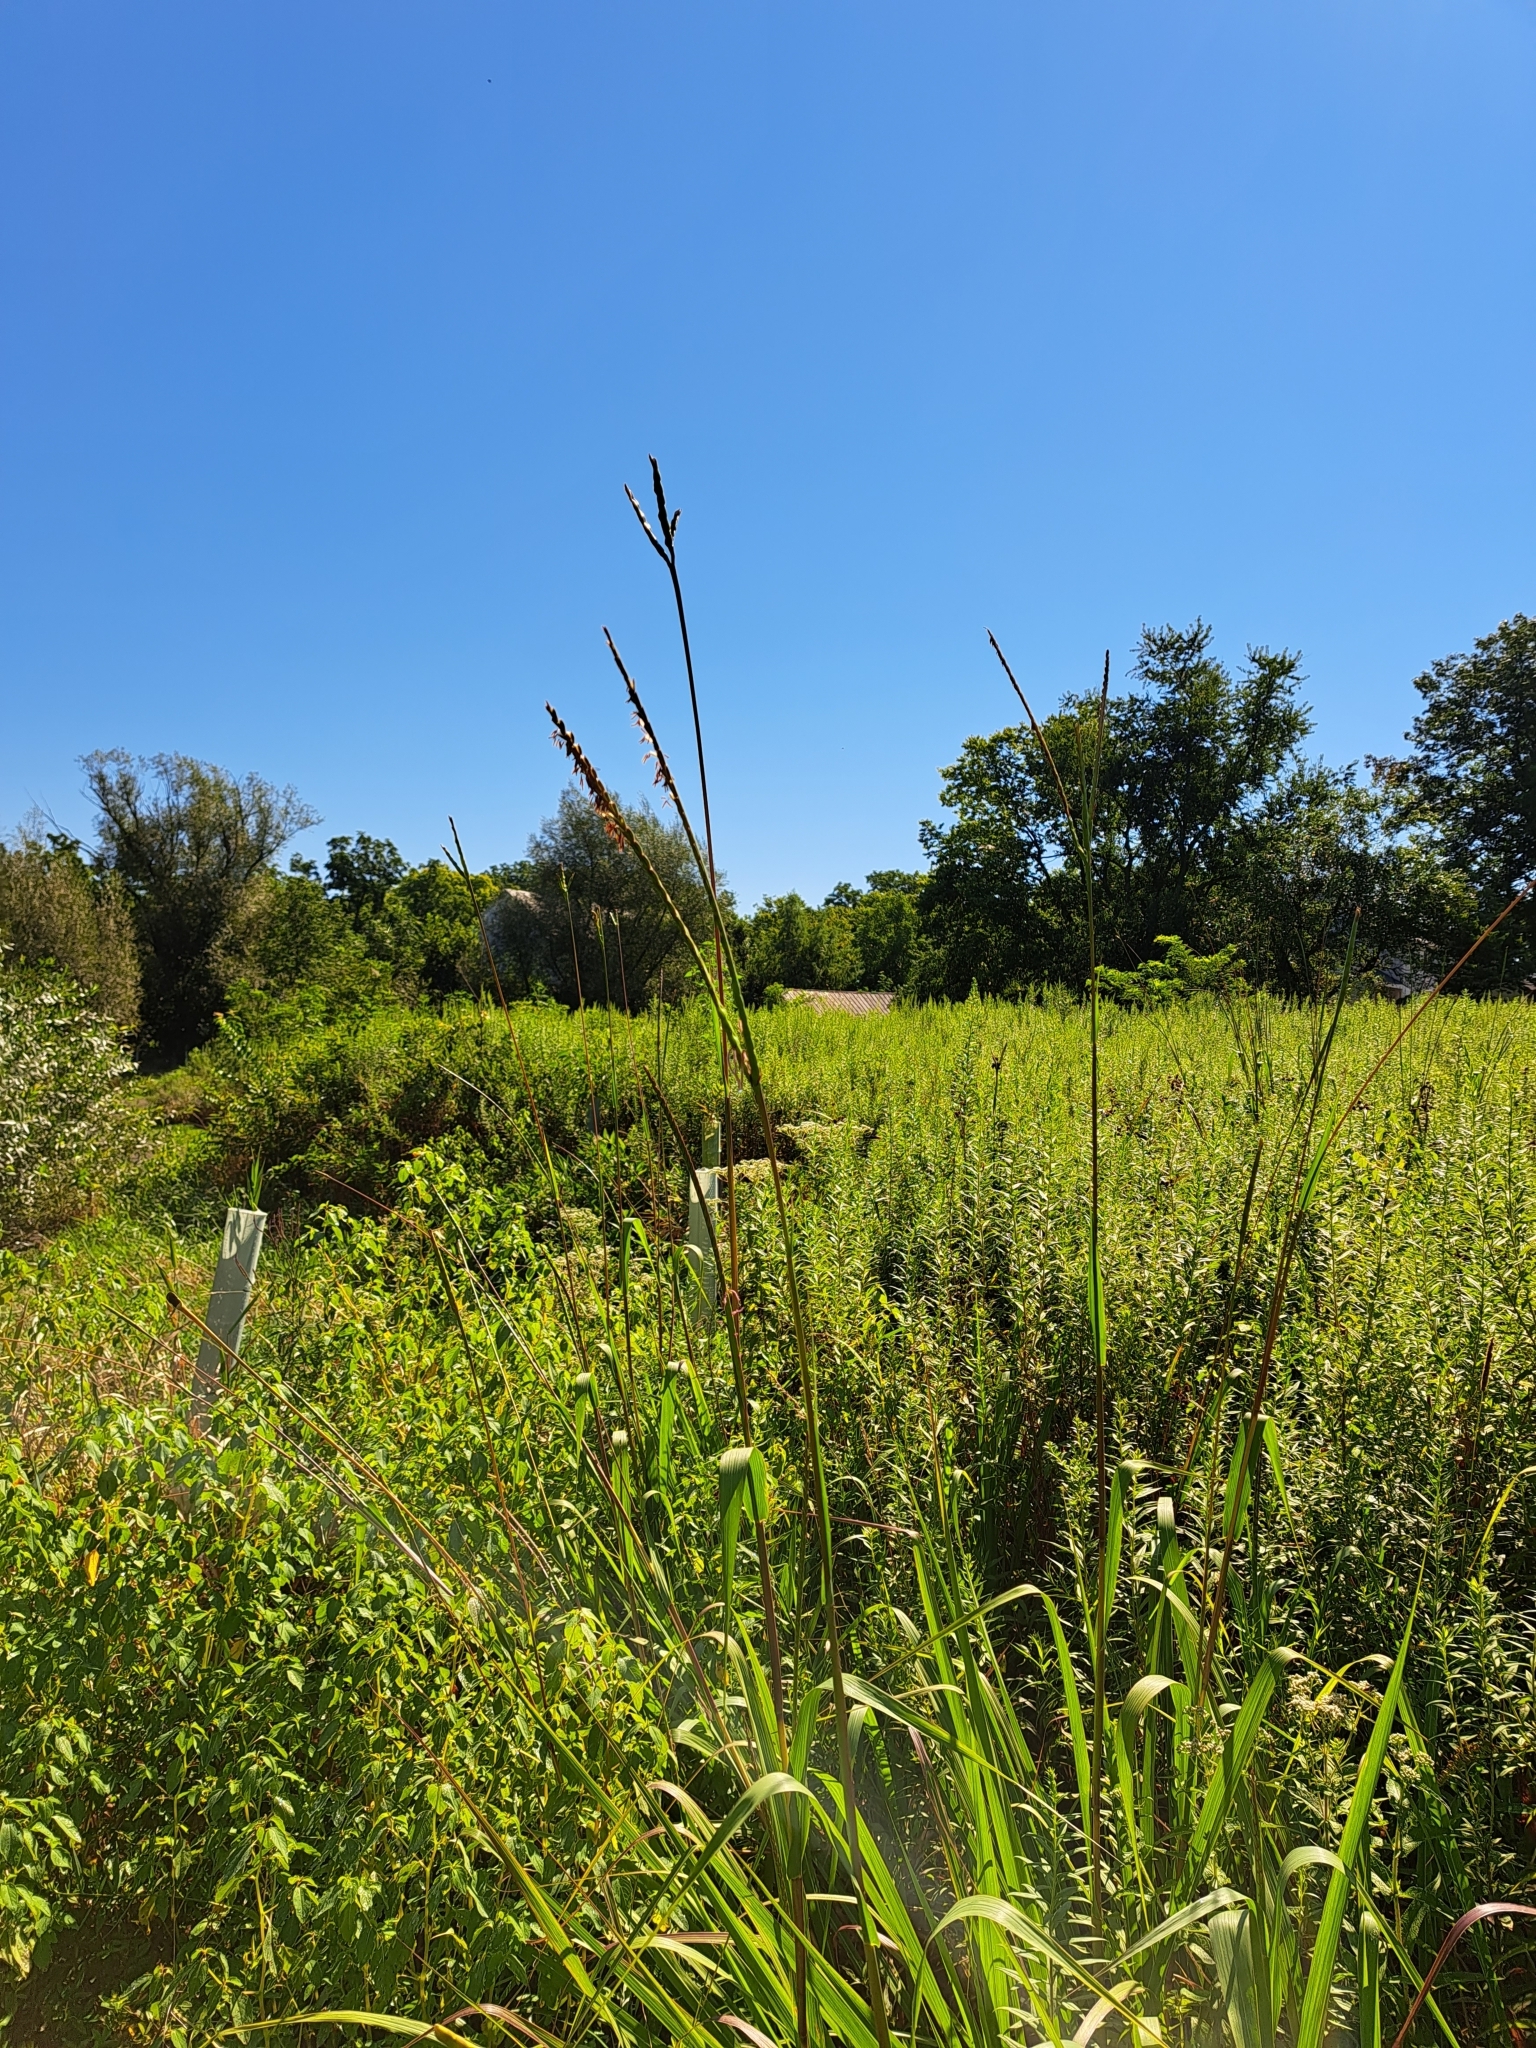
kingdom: Plantae
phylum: Tracheophyta
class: Liliopsida
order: Poales
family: Poaceae
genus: Tripsacum
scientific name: Tripsacum dactyloides
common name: Buffalo-grass
